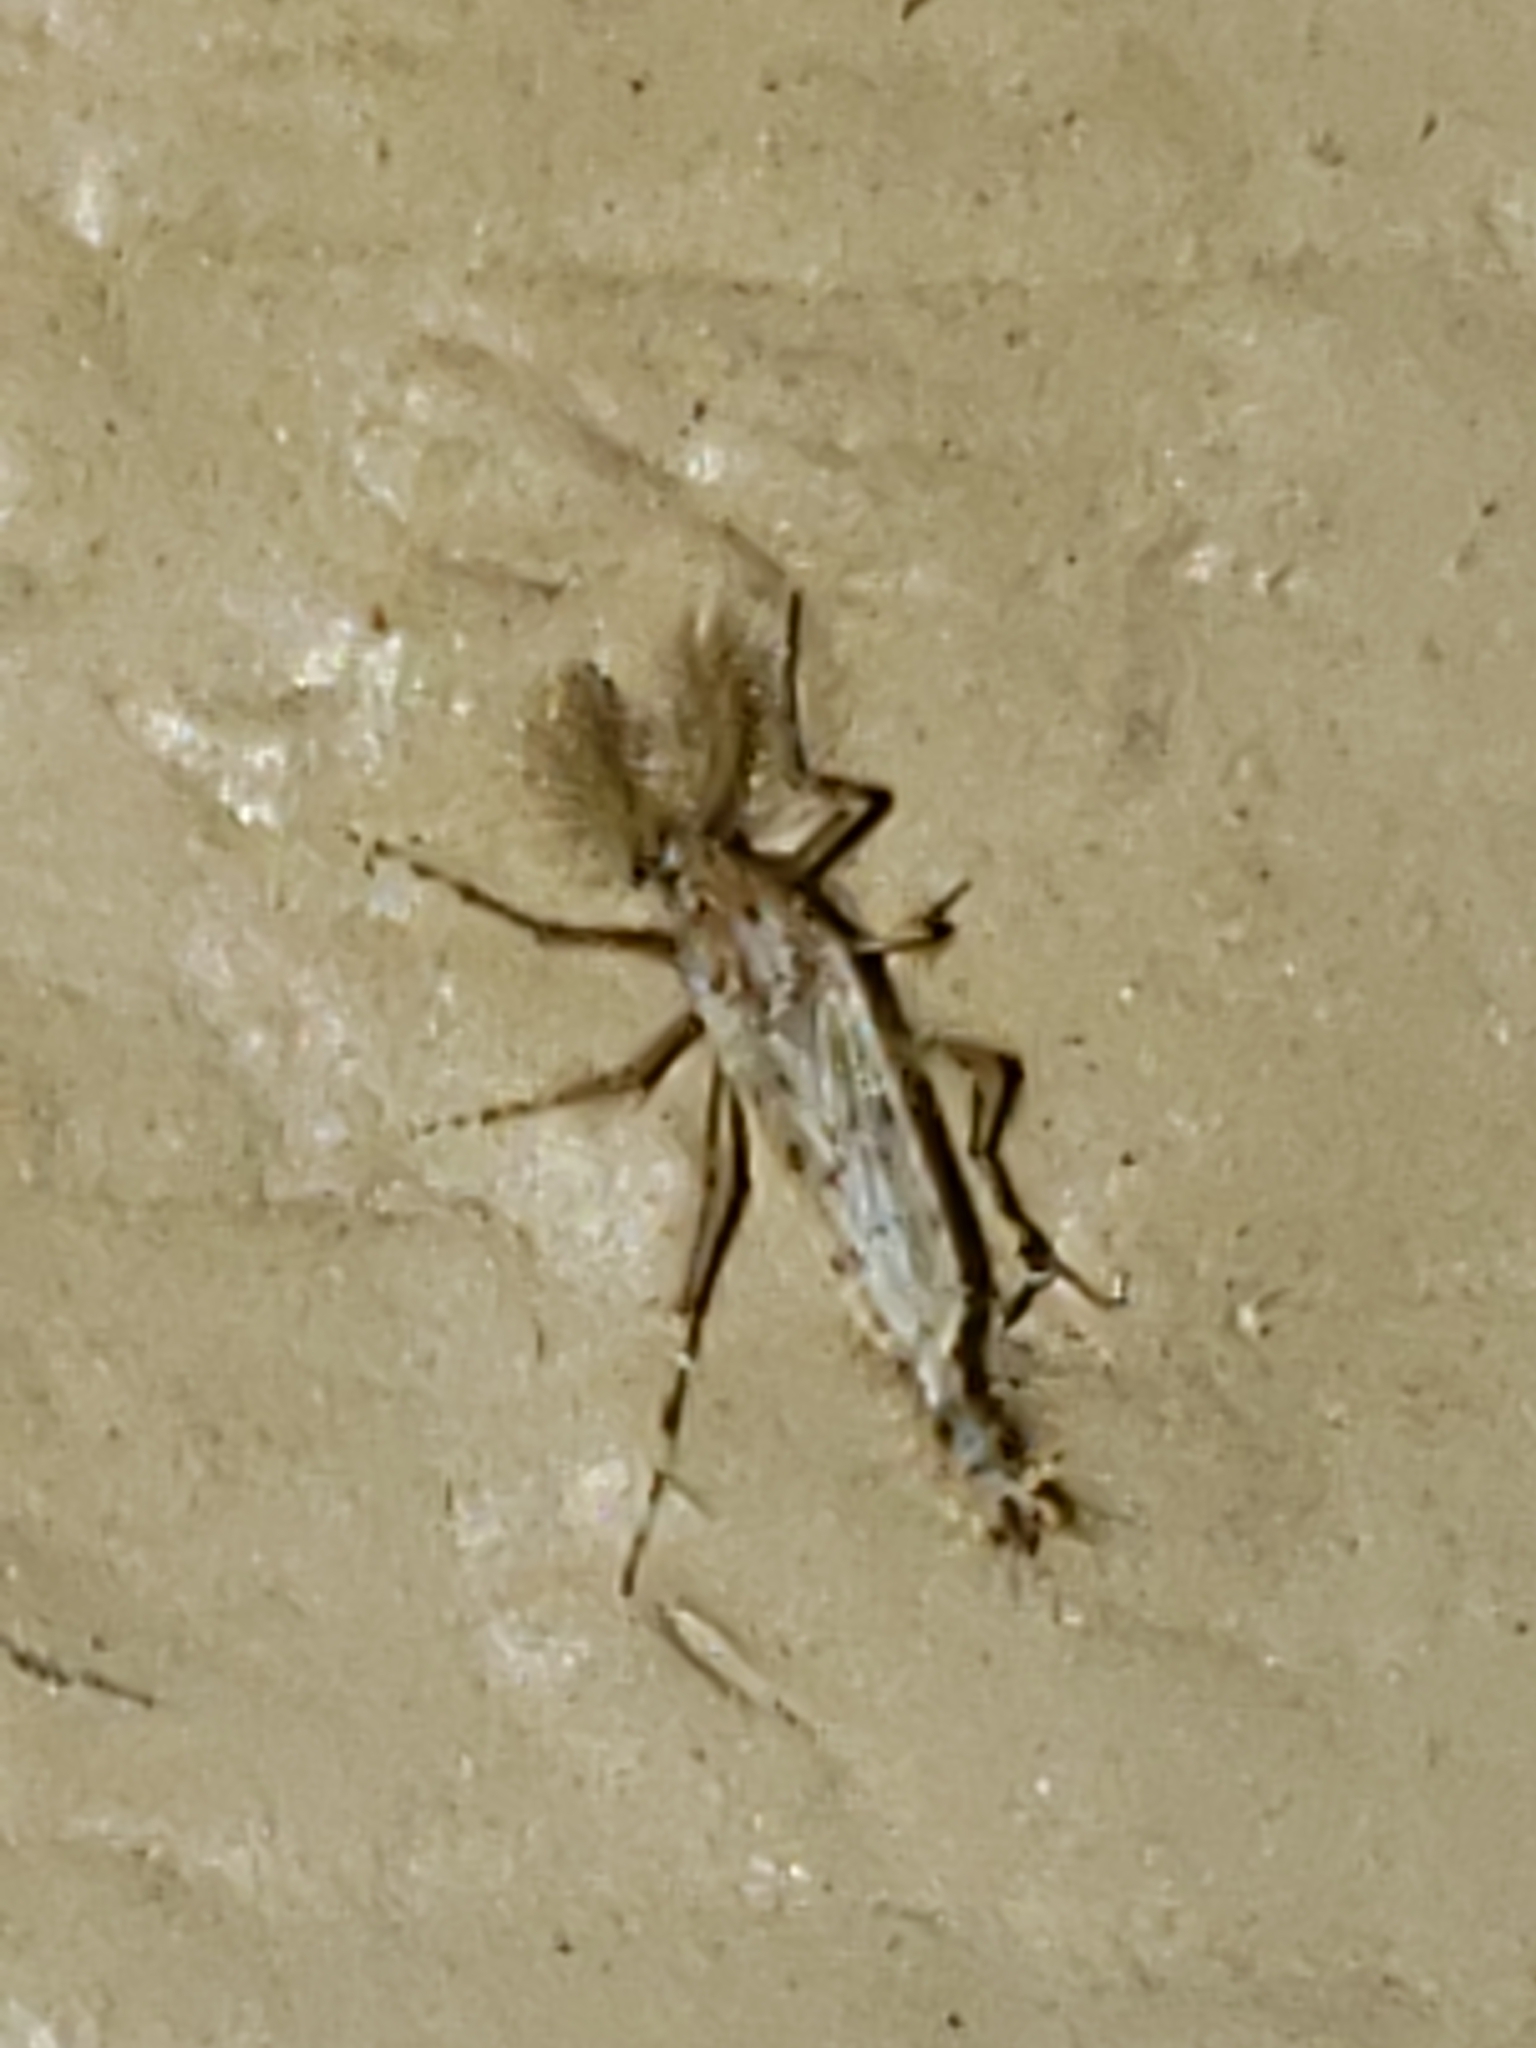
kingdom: Animalia
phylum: Arthropoda
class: Insecta
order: Diptera
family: Chaoboridae
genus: Chaoborus
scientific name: Chaoborus punctipennis
